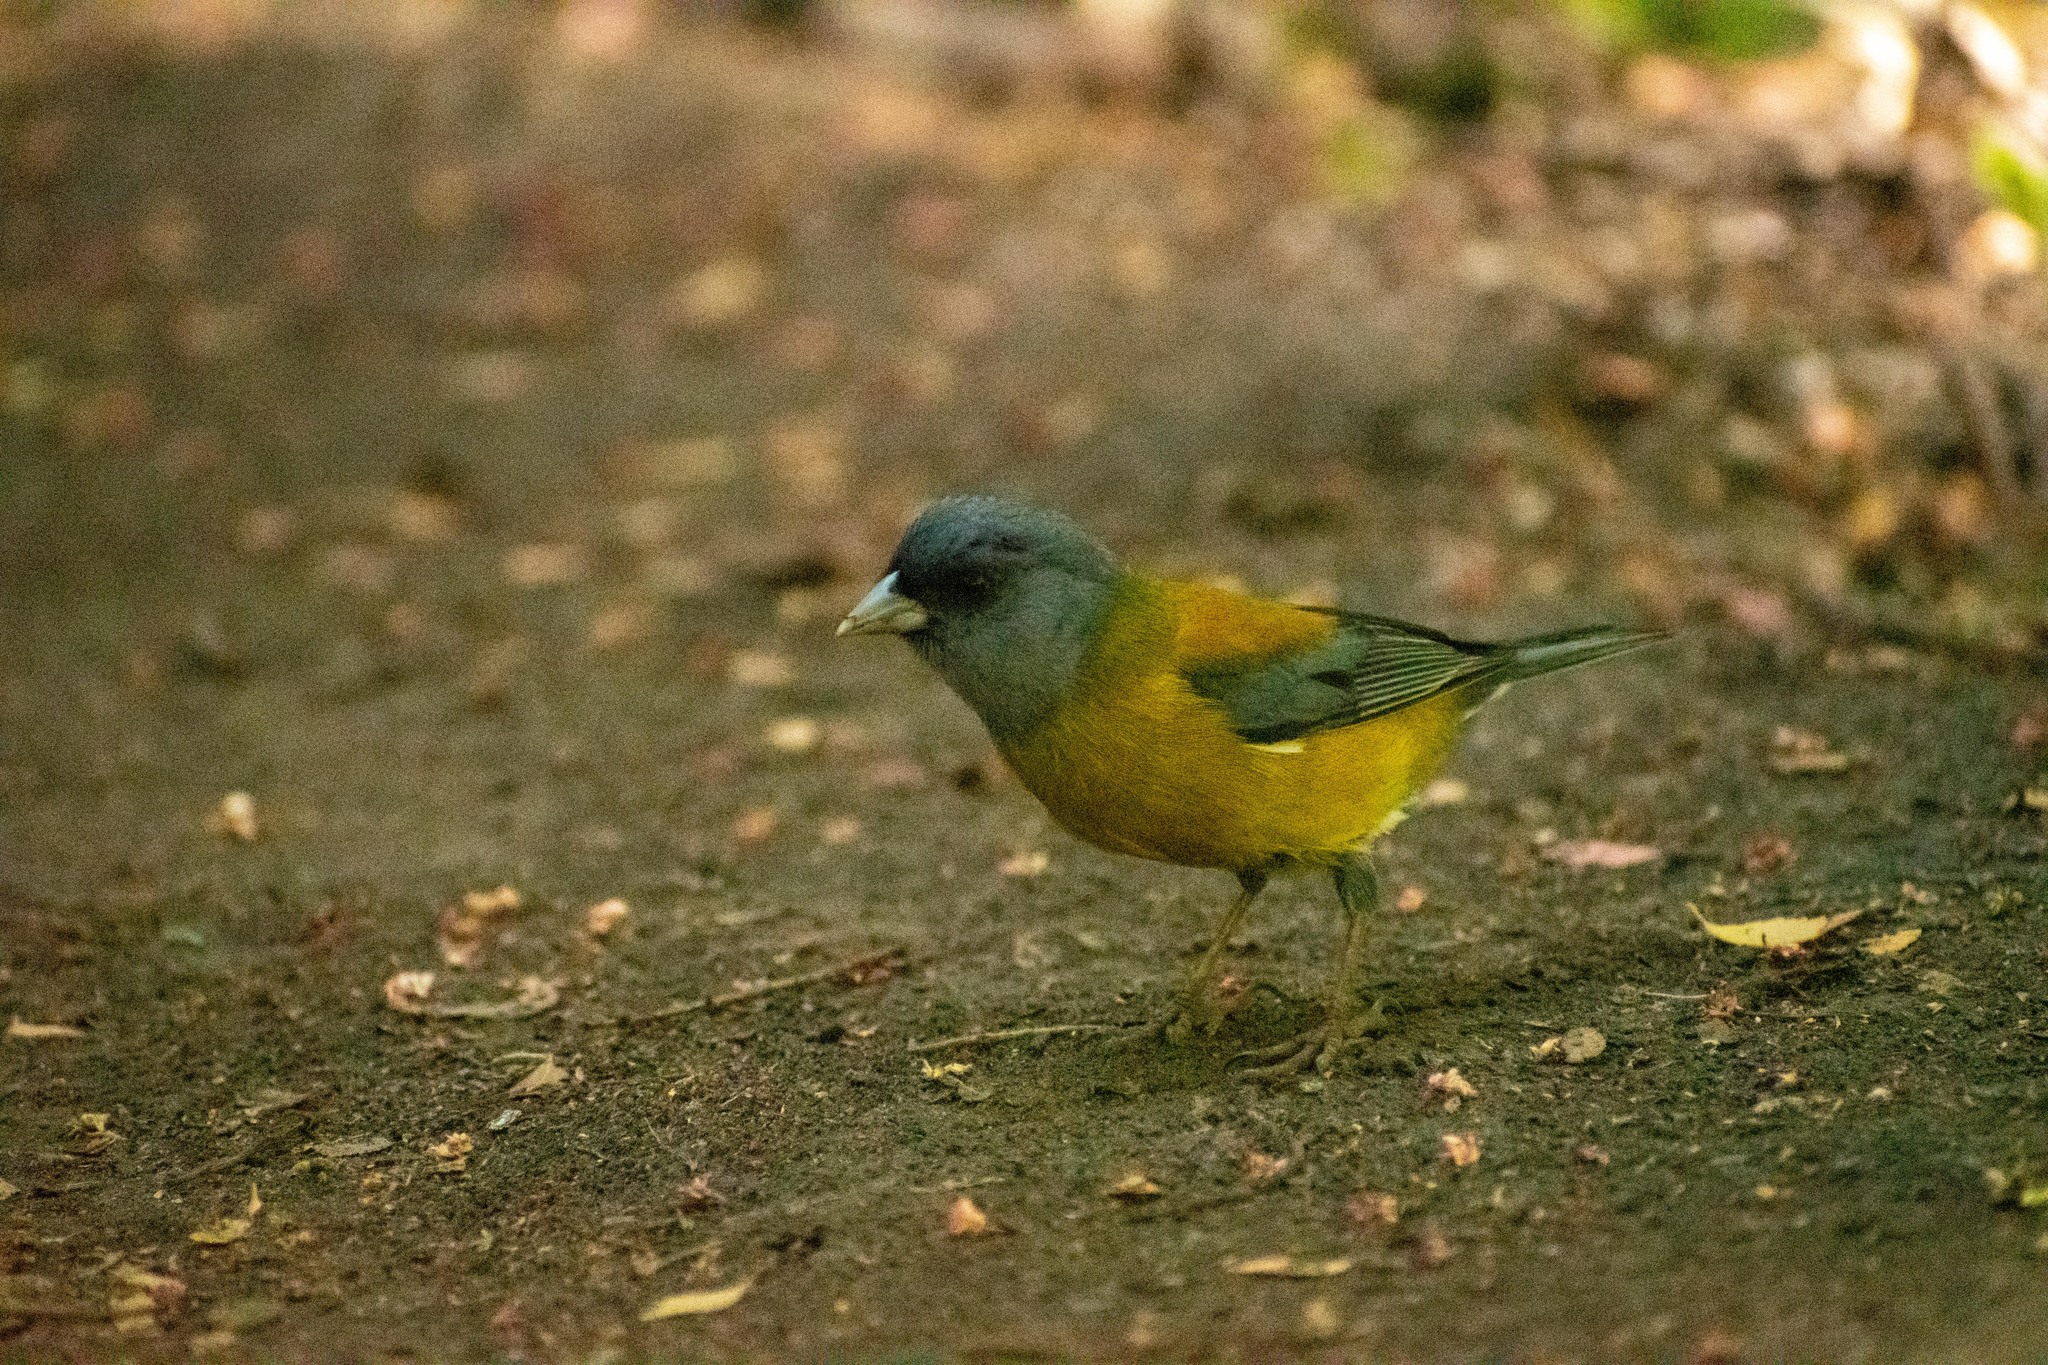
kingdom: Animalia
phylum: Chordata
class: Aves
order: Passeriformes
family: Thraupidae
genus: Phrygilus
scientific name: Phrygilus patagonicus
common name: Patagonian sierra finch
